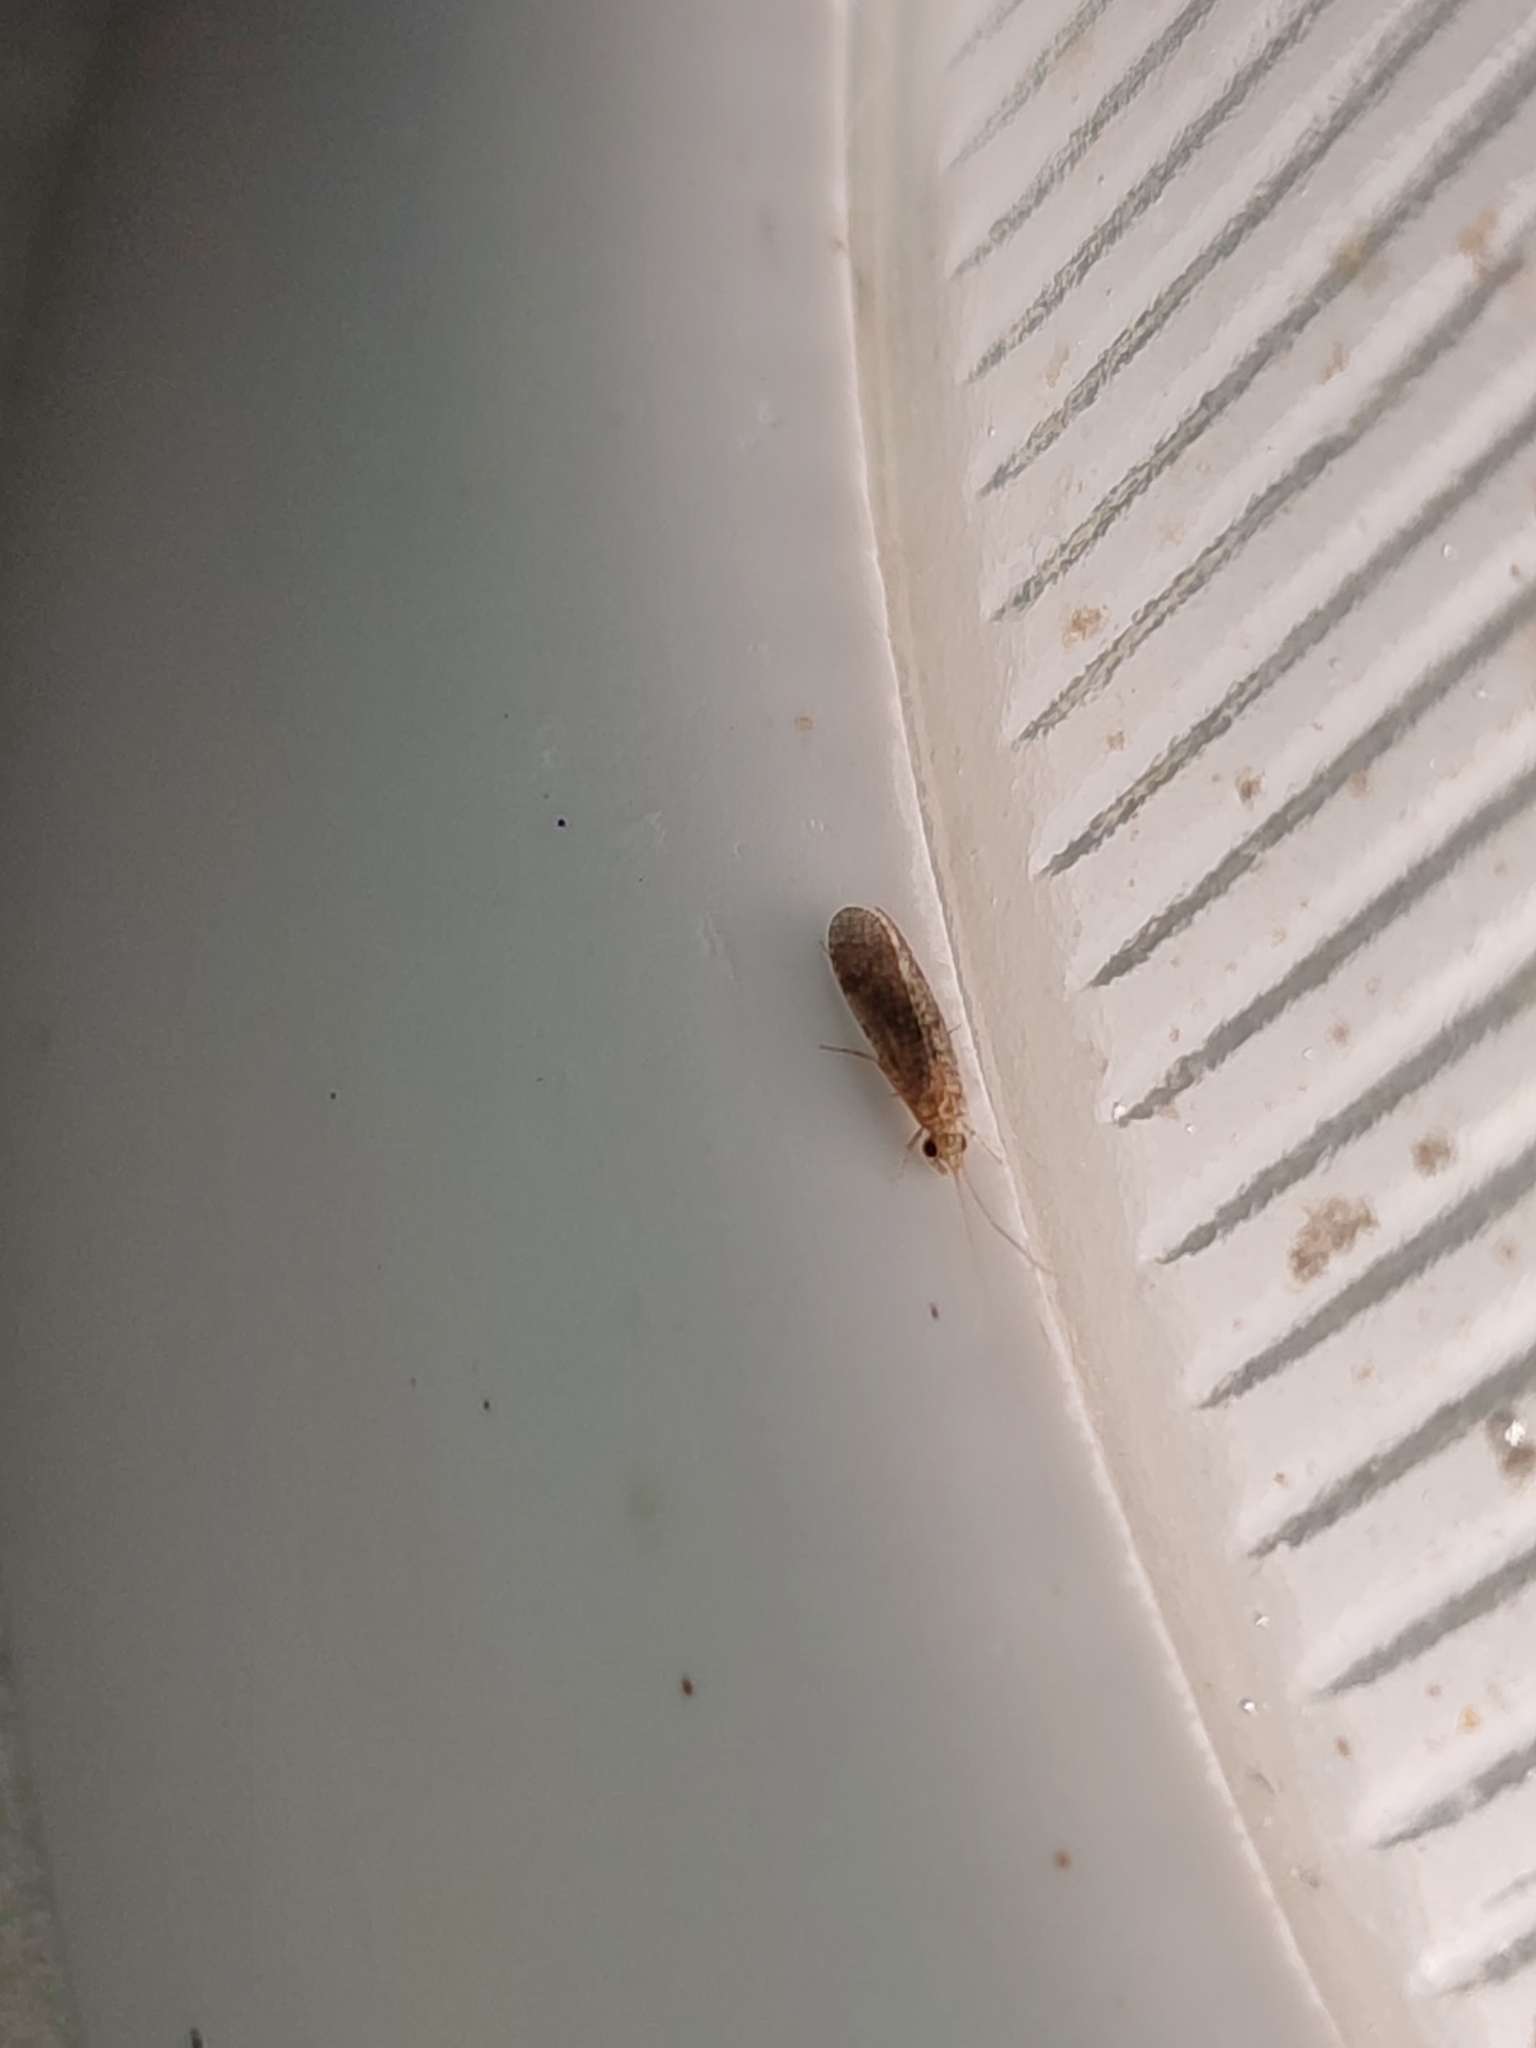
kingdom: Animalia
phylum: Arthropoda
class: Insecta
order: Trichoptera
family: Ecnomidae
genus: Ecnomus
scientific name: Ecnomus tenellus
